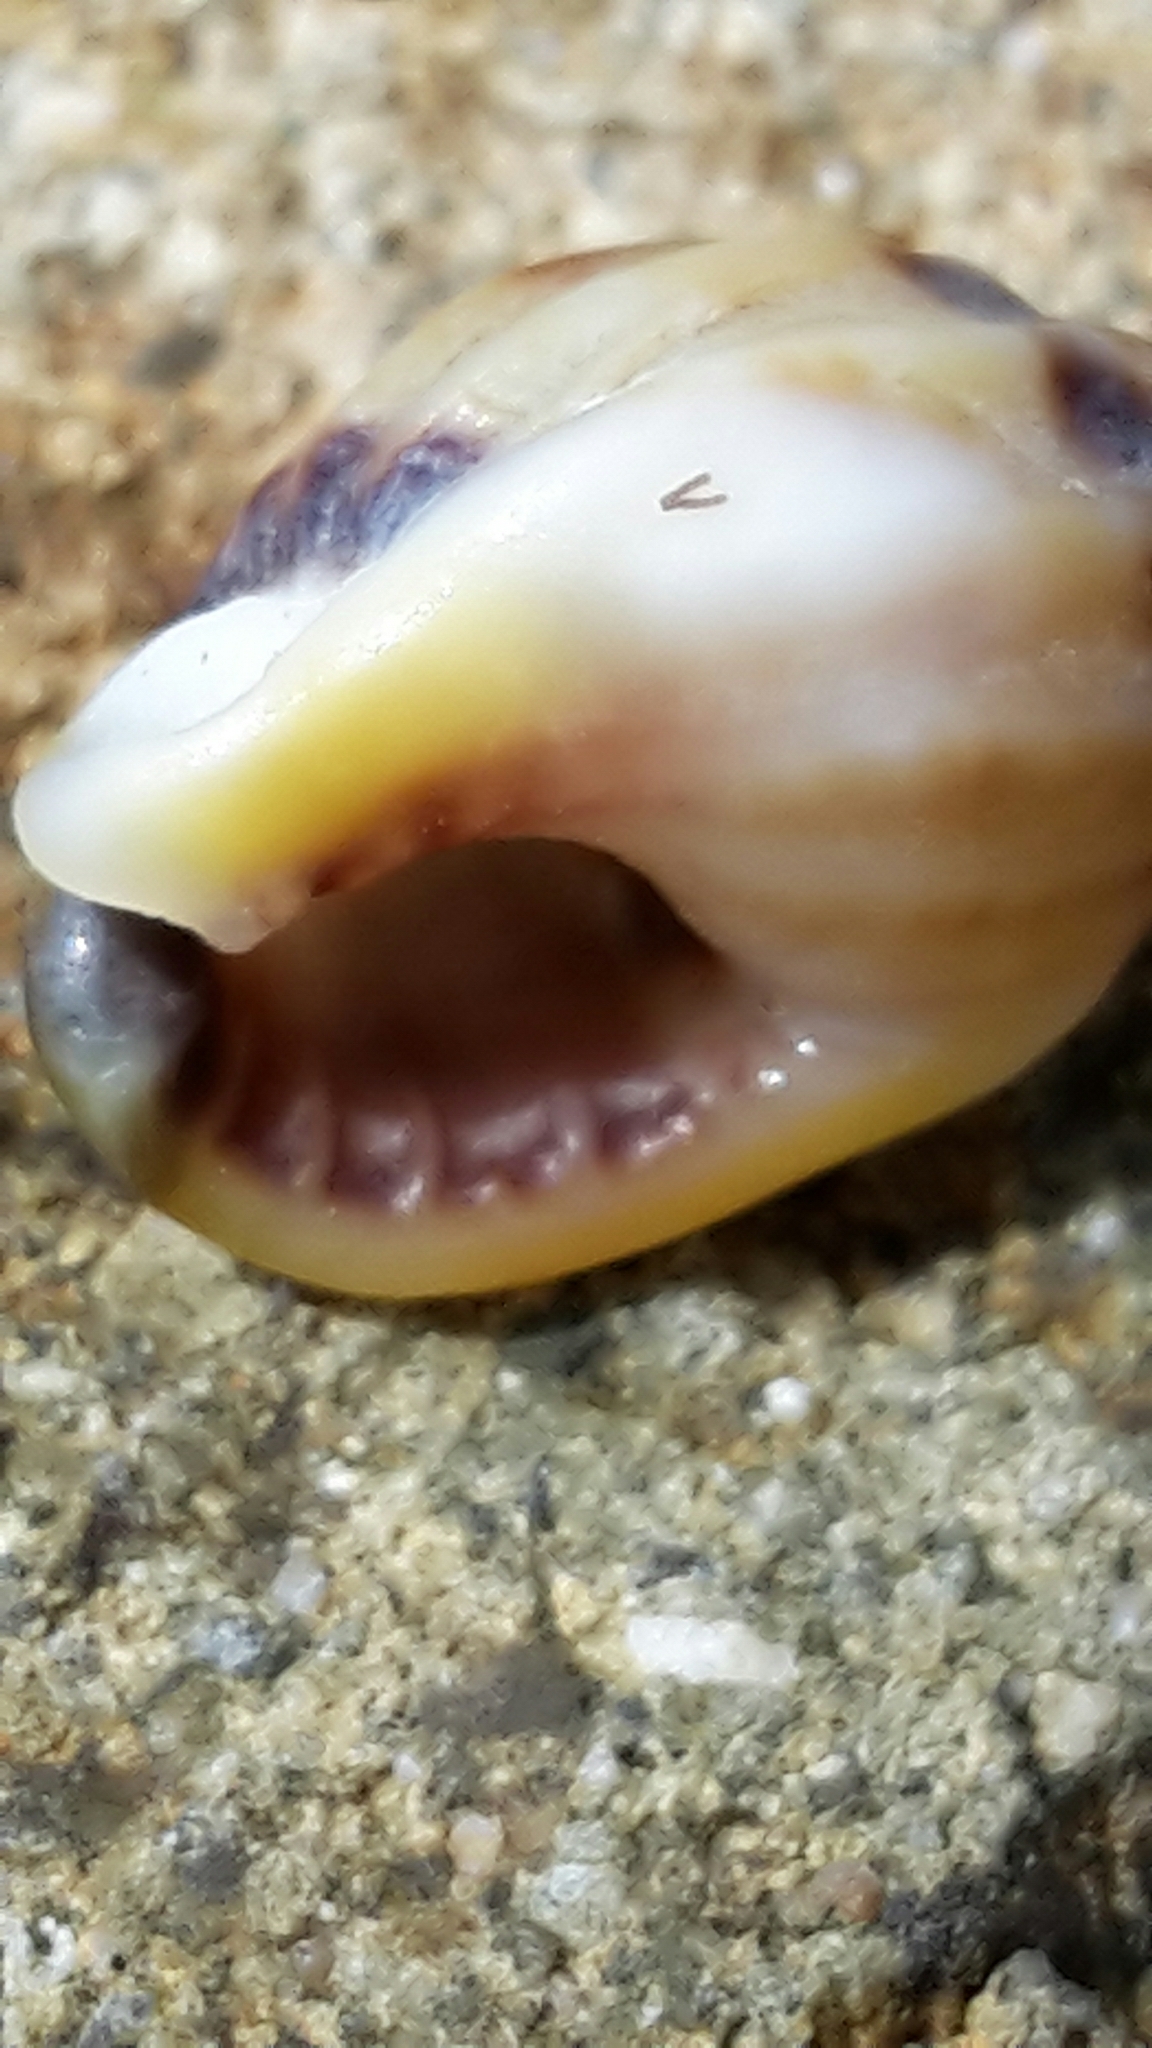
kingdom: Animalia
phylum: Mollusca
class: Gastropoda
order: Neogastropoda
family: Nassariidae
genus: Tritia
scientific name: Tritia burchardi
